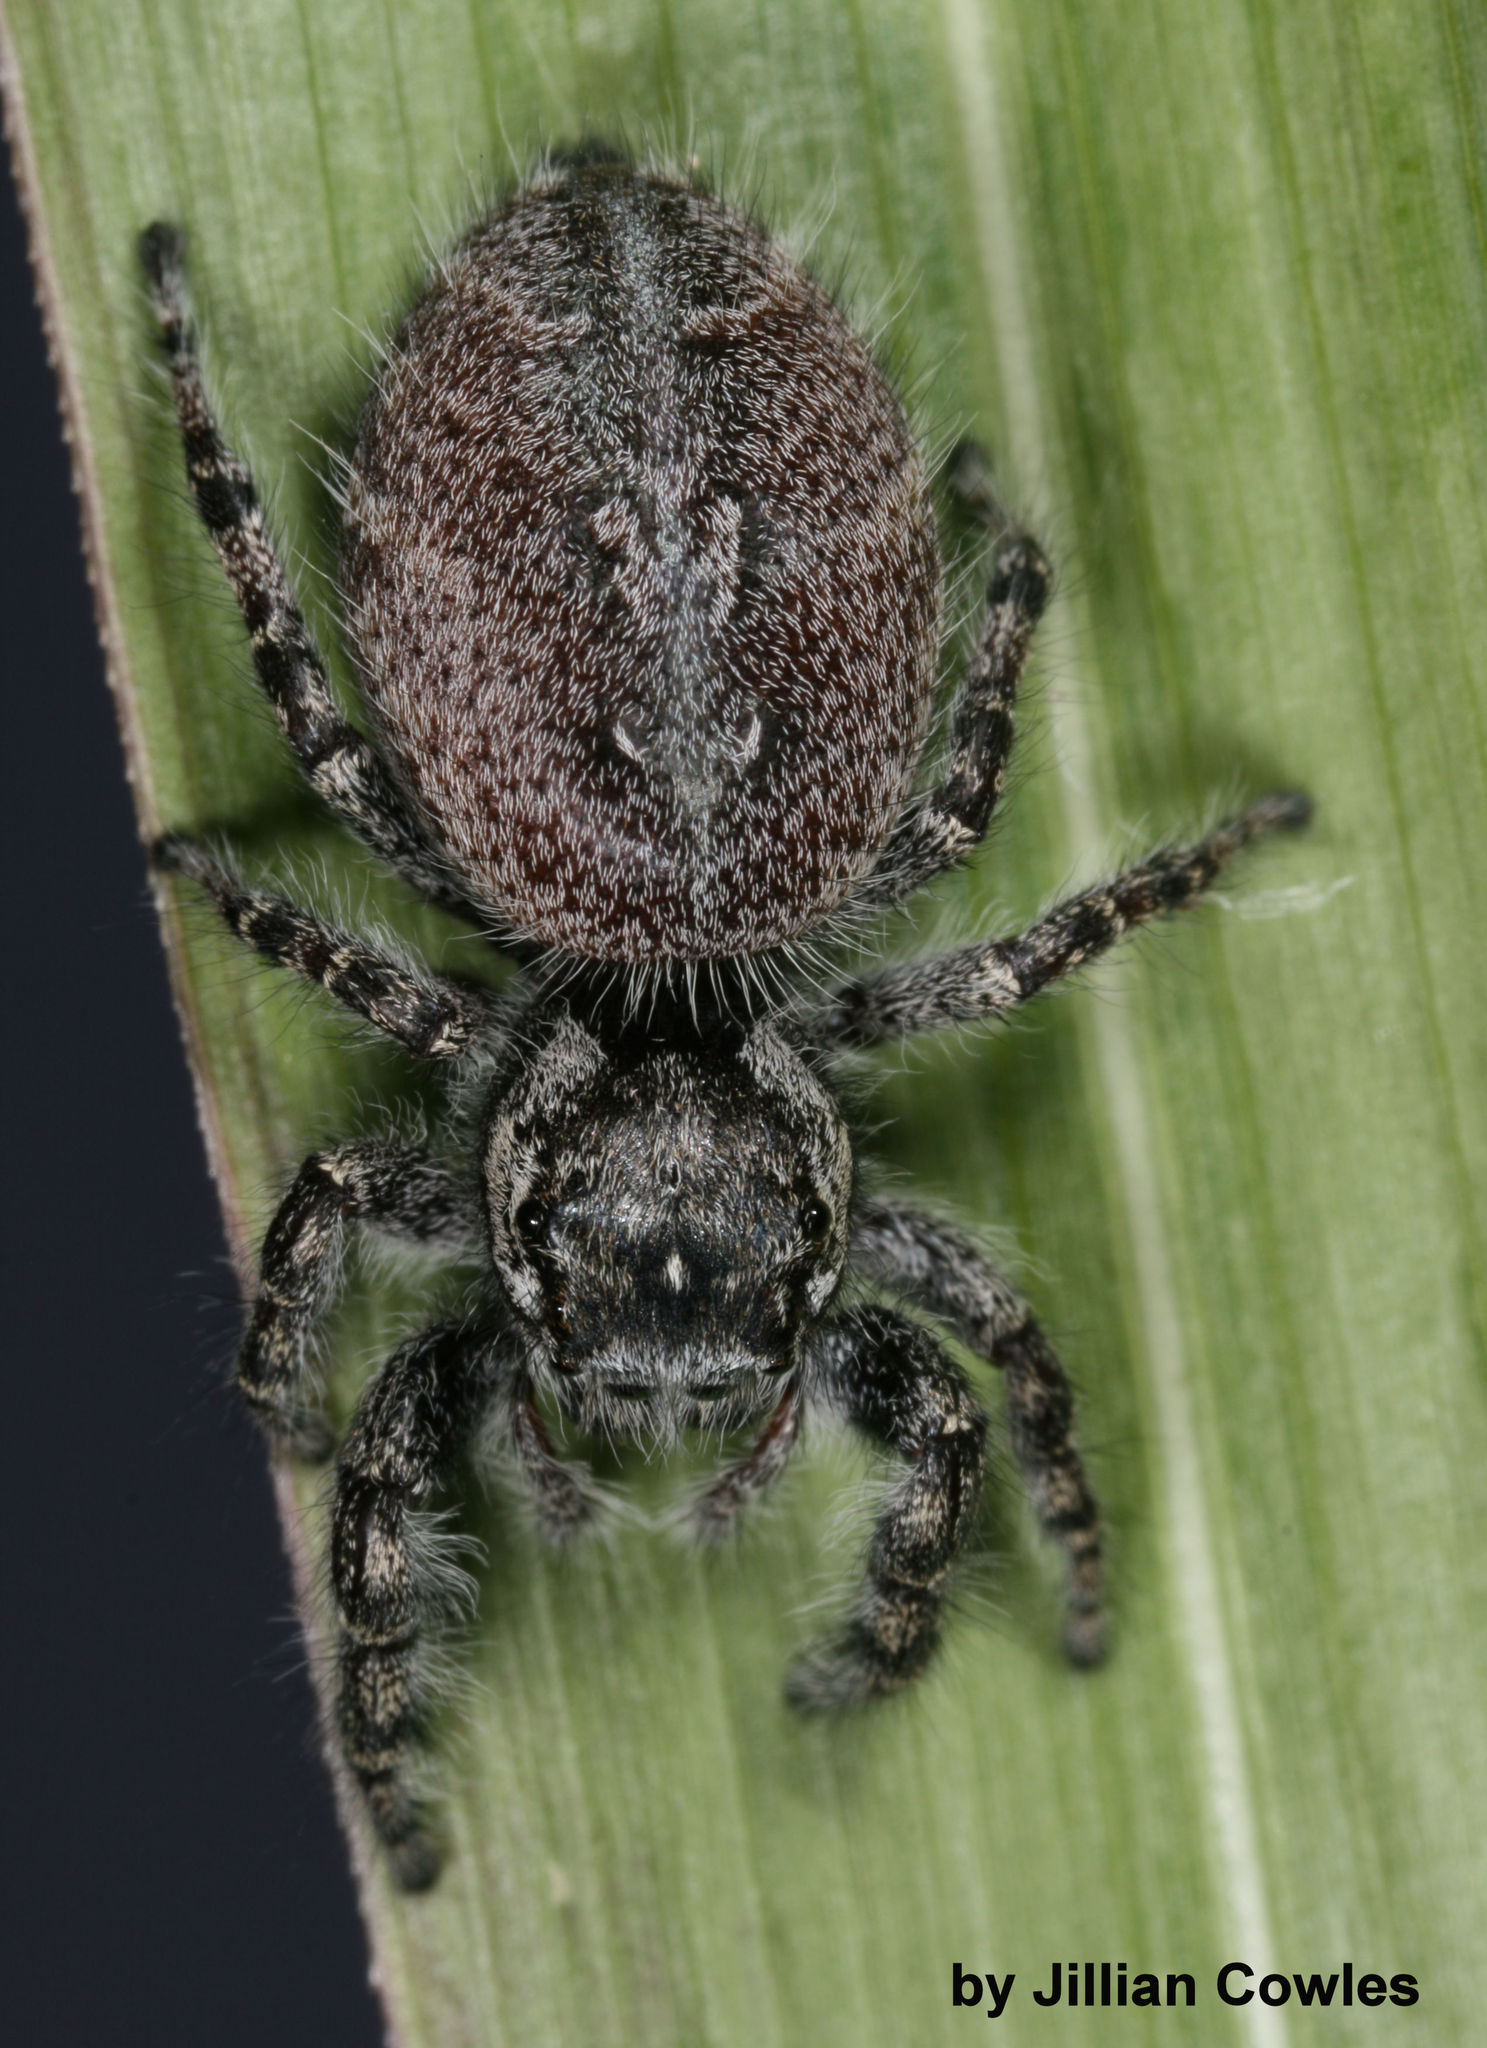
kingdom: Animalia
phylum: Arthropoda
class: Arachnida
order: Araneae
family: Salticidae
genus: Phidippus
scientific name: Phidippus asotus
